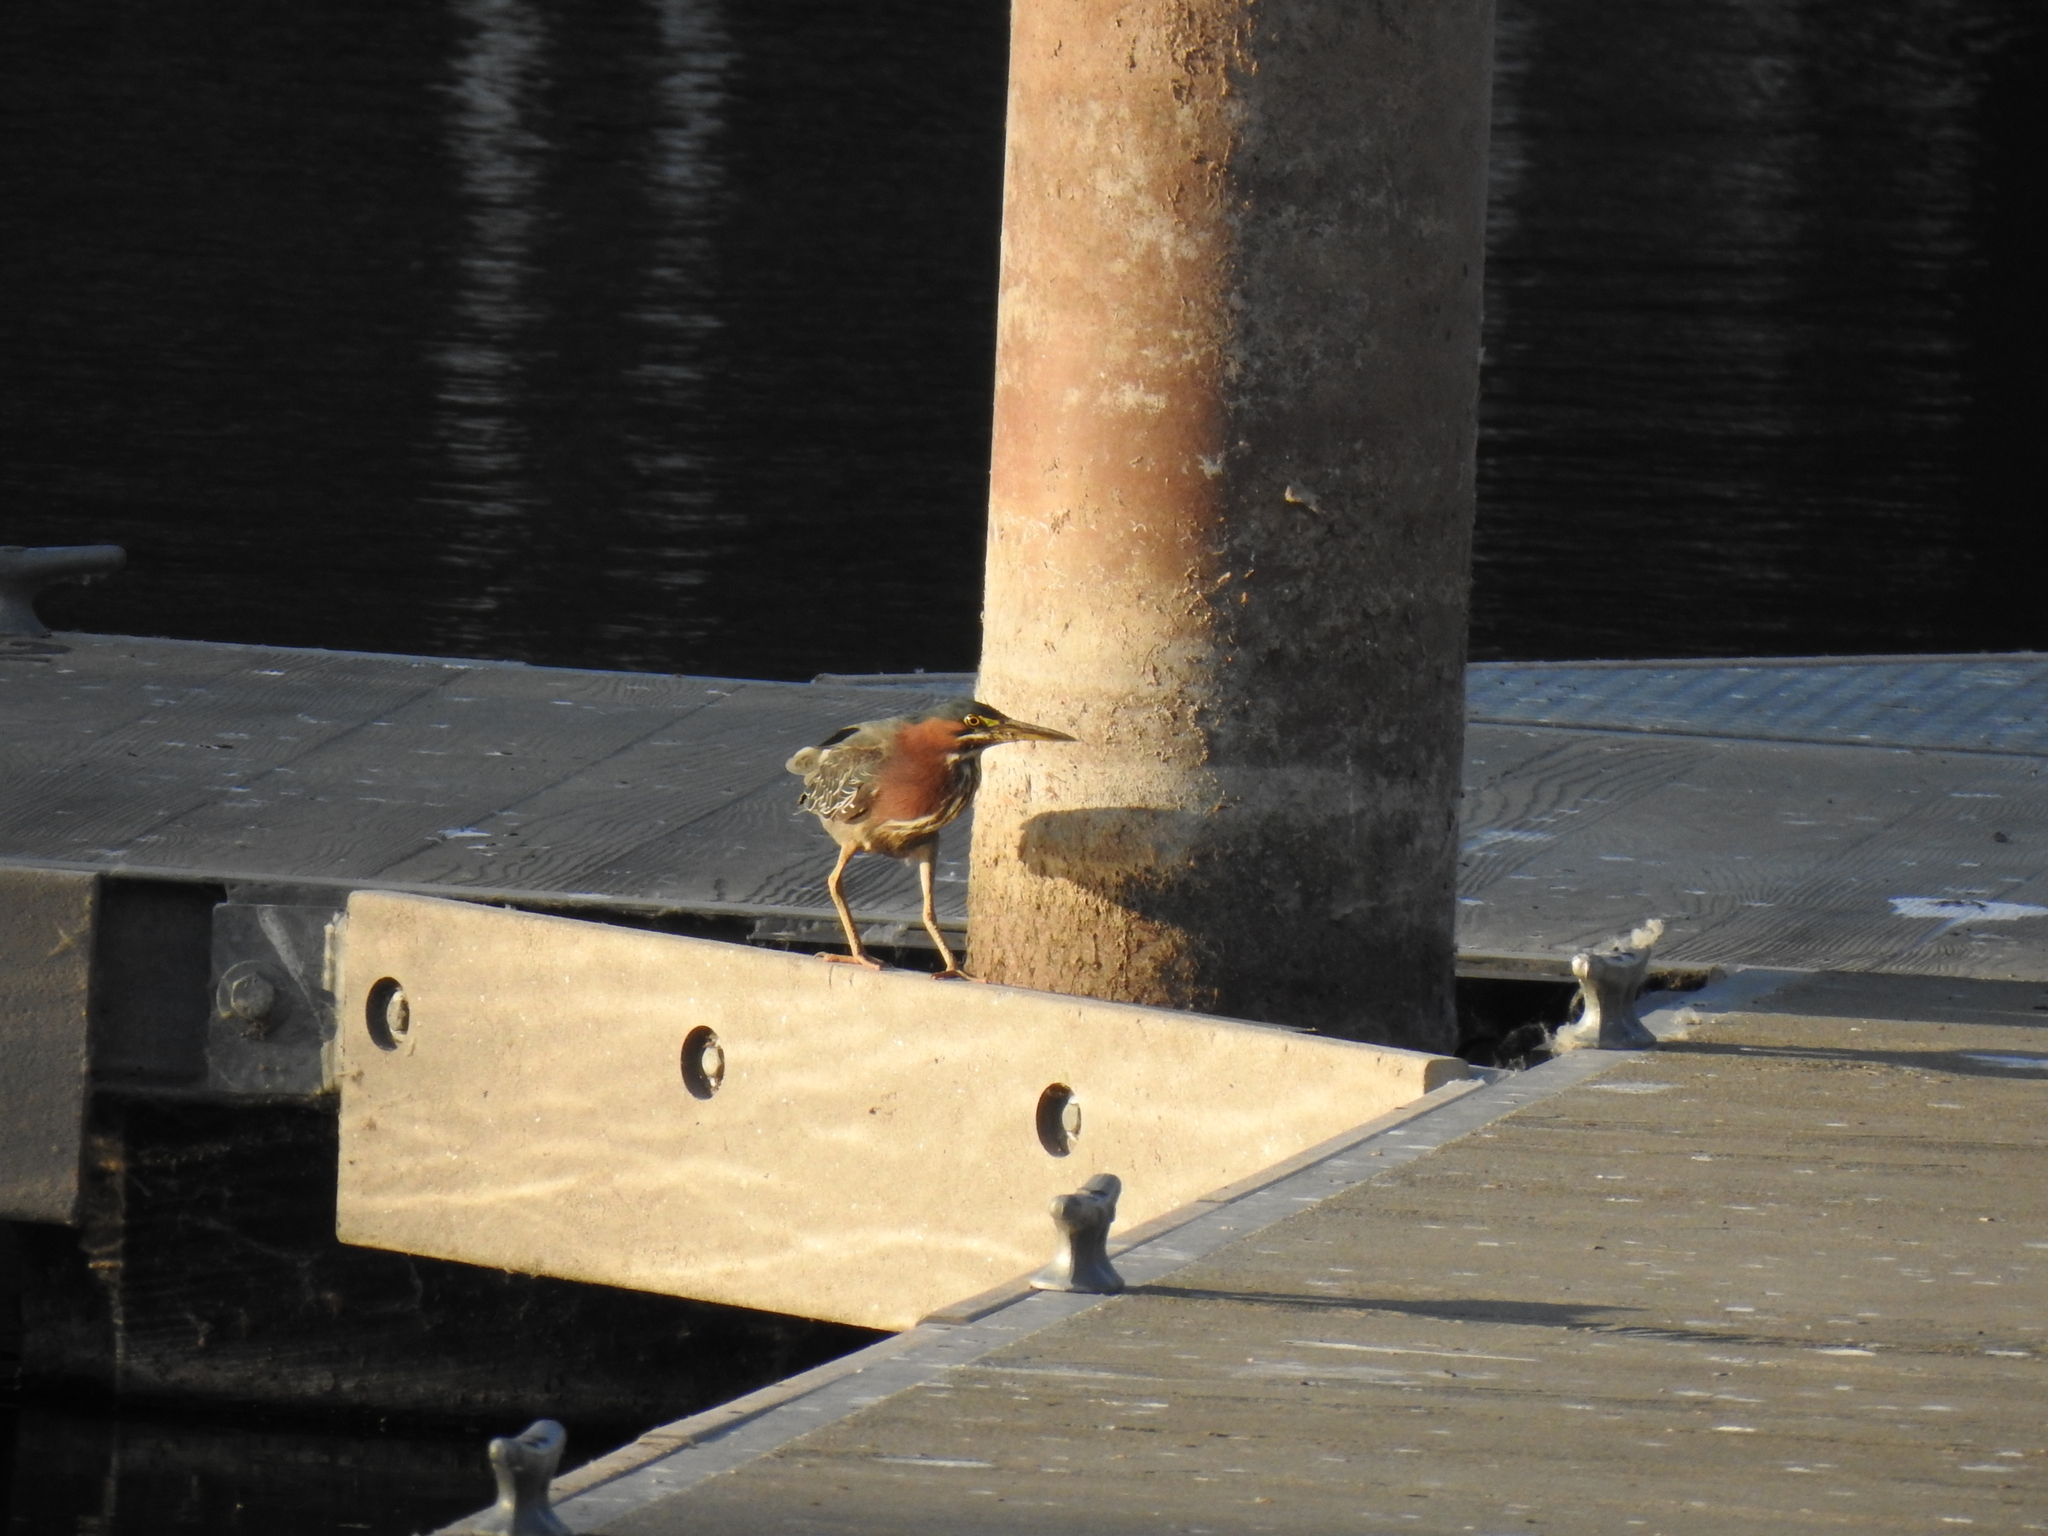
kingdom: Animalia
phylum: Chordata
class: Aves
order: Pelecaniformes
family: Ardeidae
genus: Butorides
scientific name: Butorides virescens
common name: Green heron
